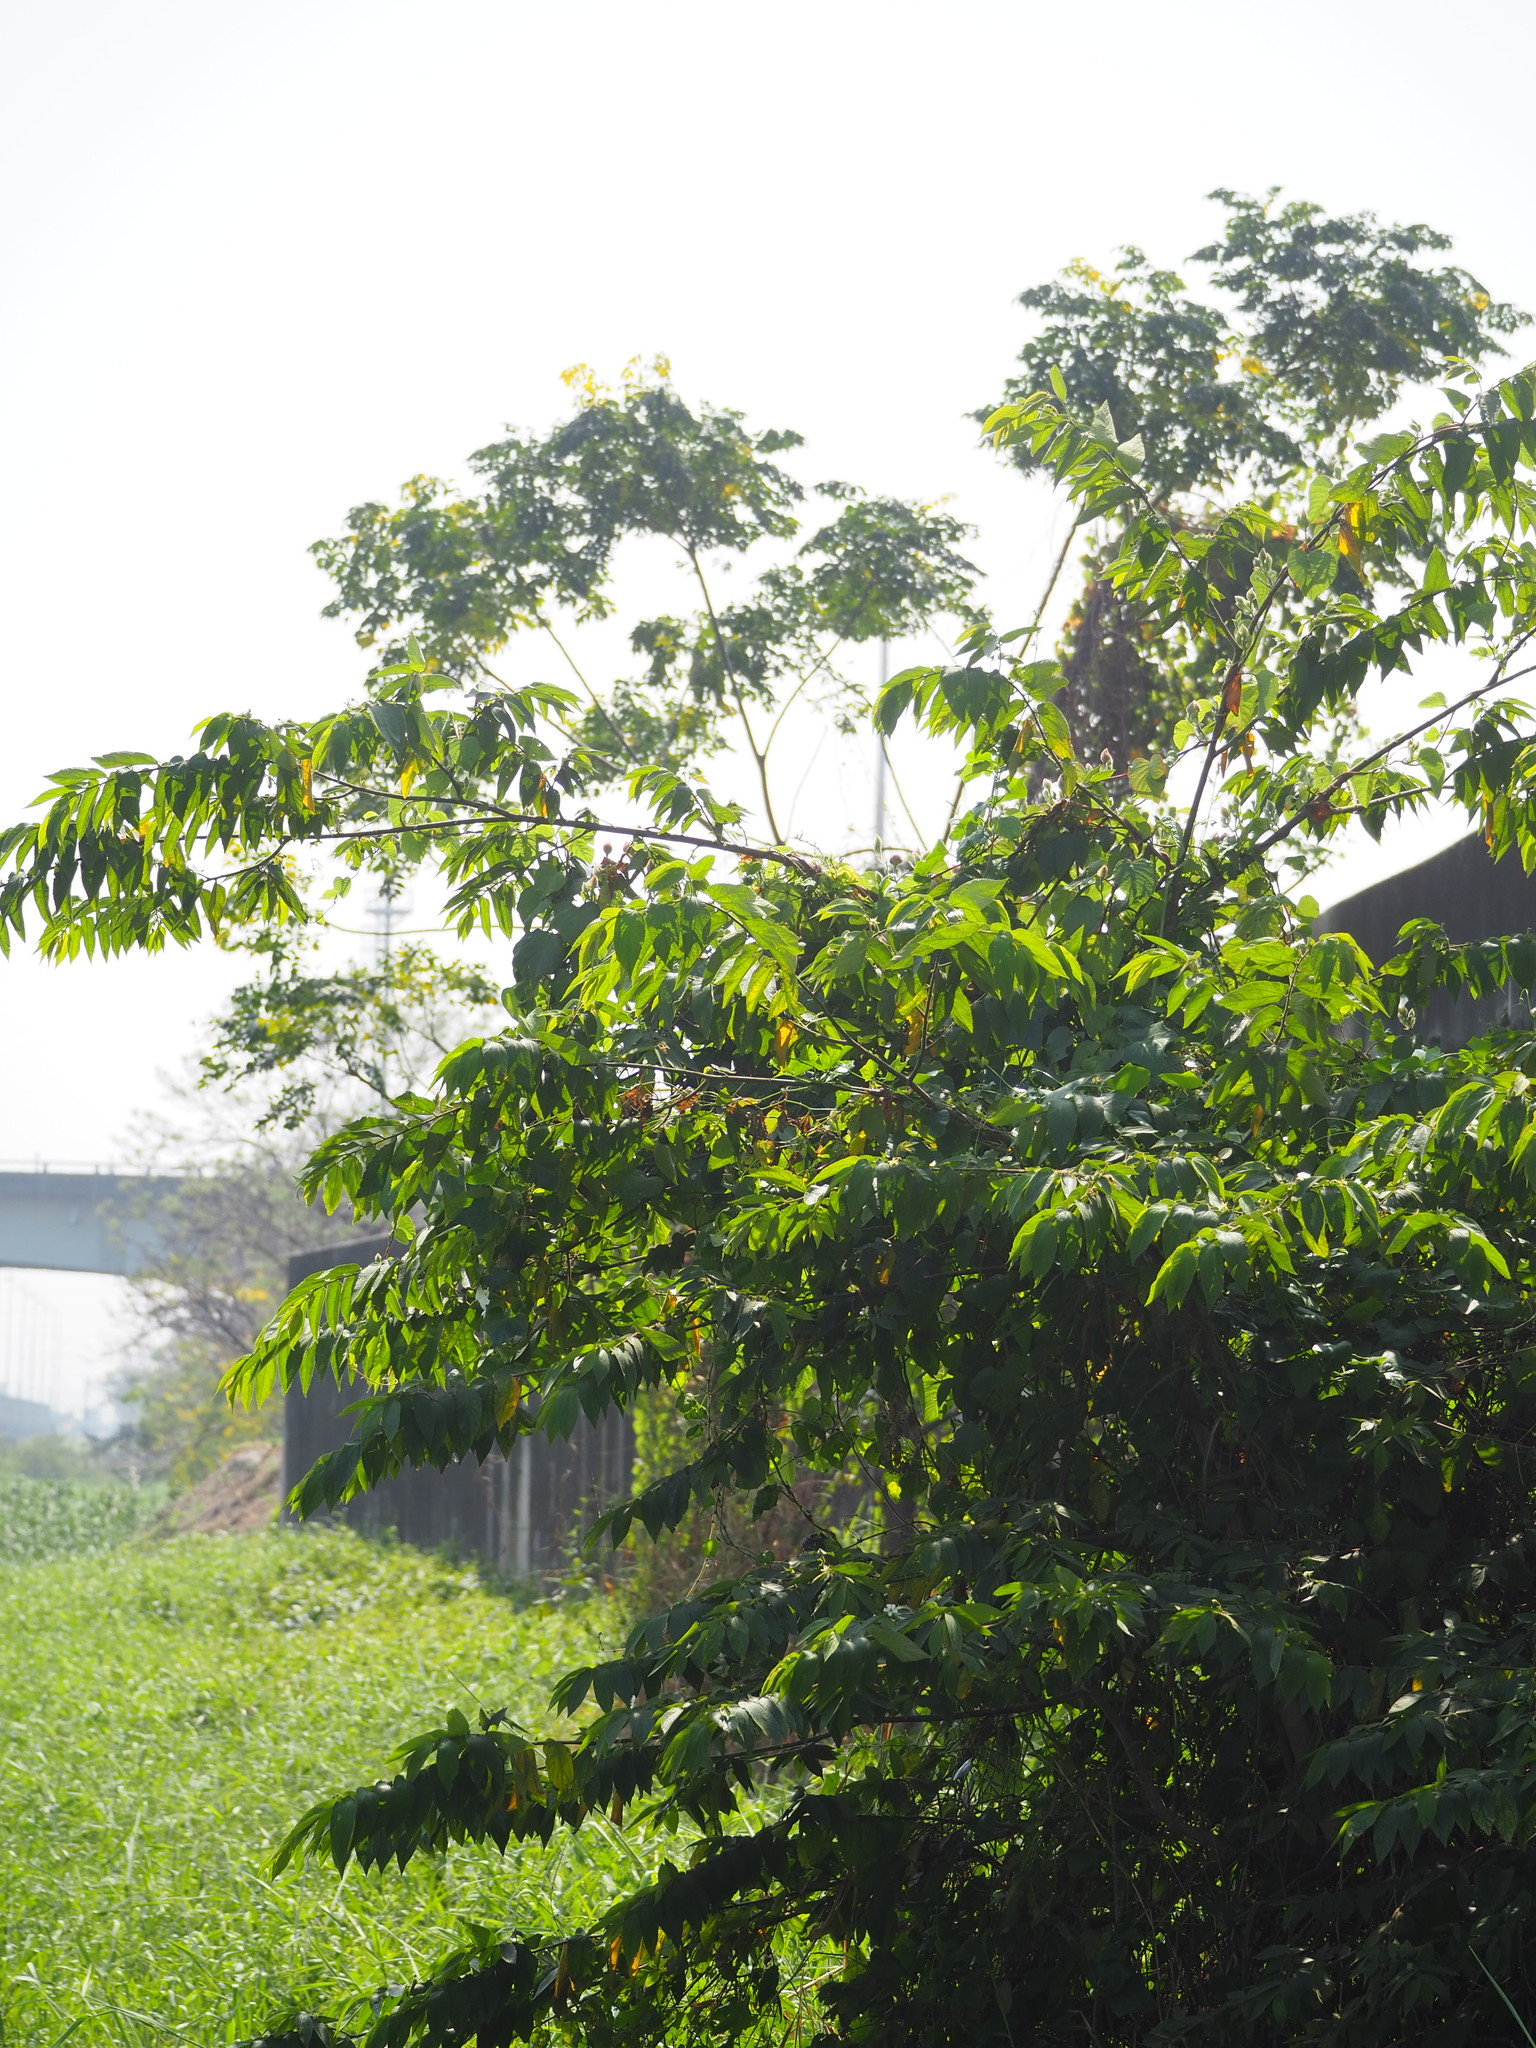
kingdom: Plantae
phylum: Tracheophyta
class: Magnoliopsida
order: Malvales
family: Muntingiaceae
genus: Muntingia
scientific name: Muntingia calabura
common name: Strawberrytree
